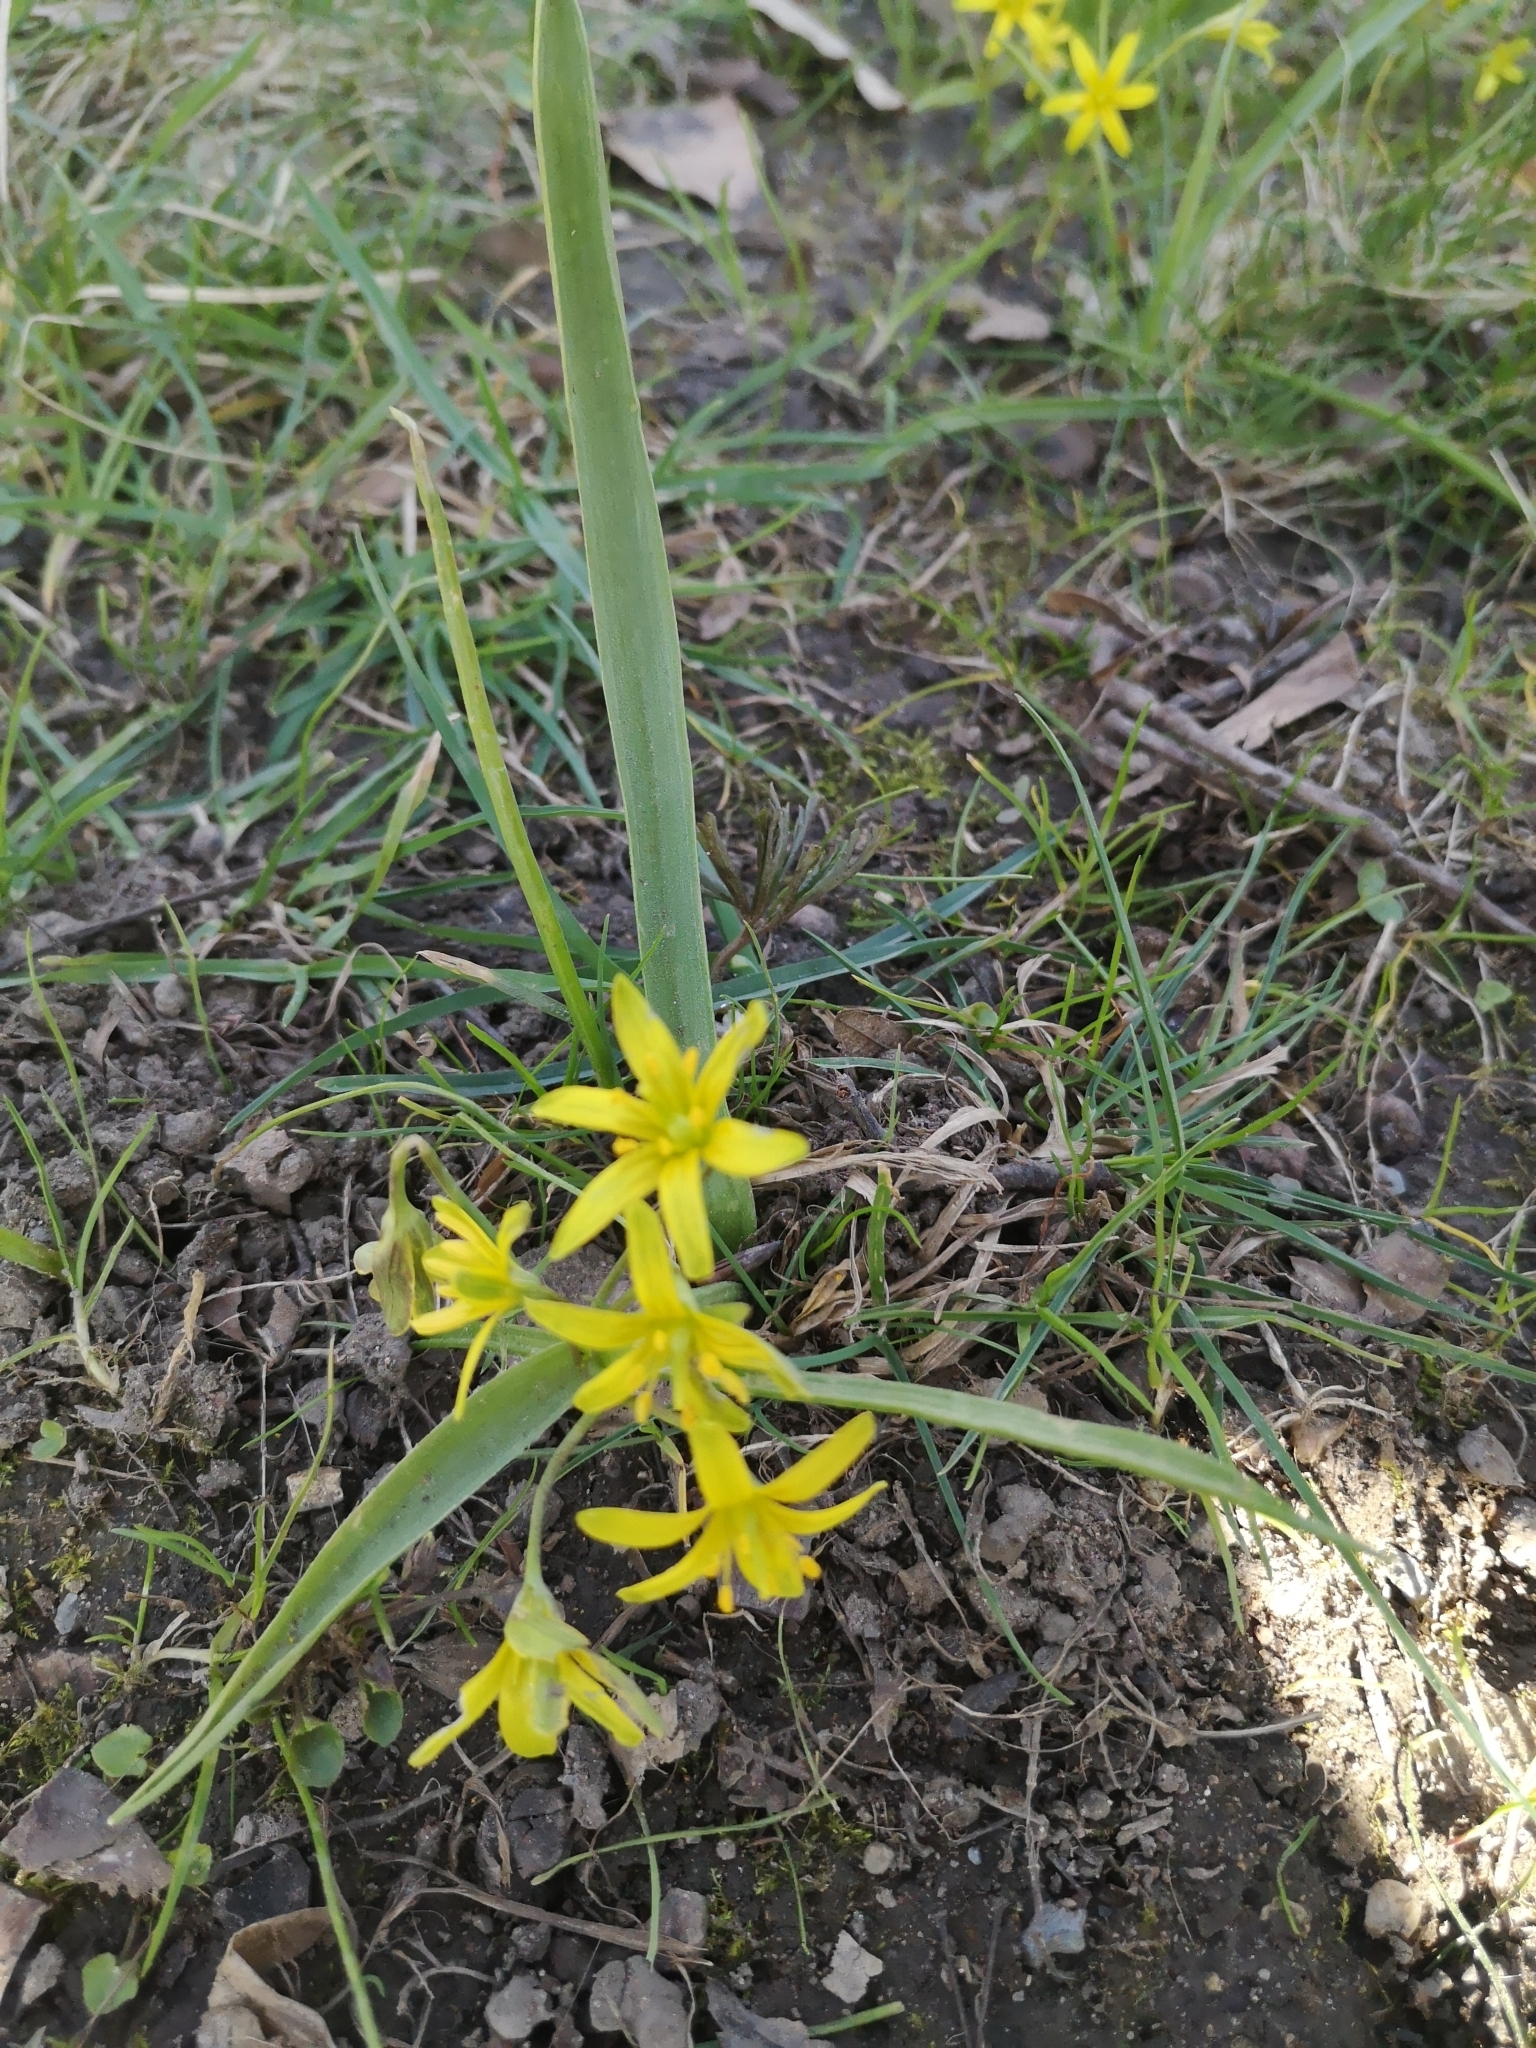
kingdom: Plantae
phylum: Tracheophyta
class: Liliopsida
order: Liliales
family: Liliaceae
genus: Gagea
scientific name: Gagea lutea
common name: Yellow star-of-bethlehem
